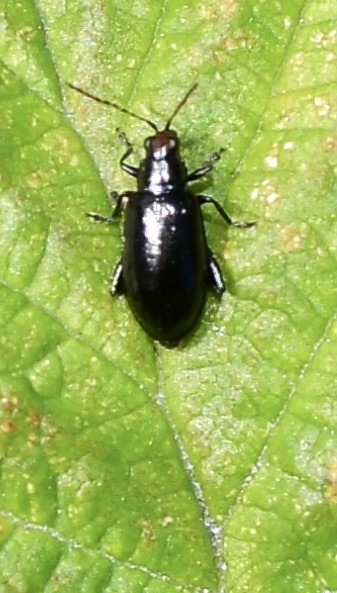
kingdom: Animalia
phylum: Arthropoda
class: Insecta
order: Coleoptera
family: Chrysomelidae
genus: Systena
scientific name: Systena frontalis
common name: Red-headed flea beetle
